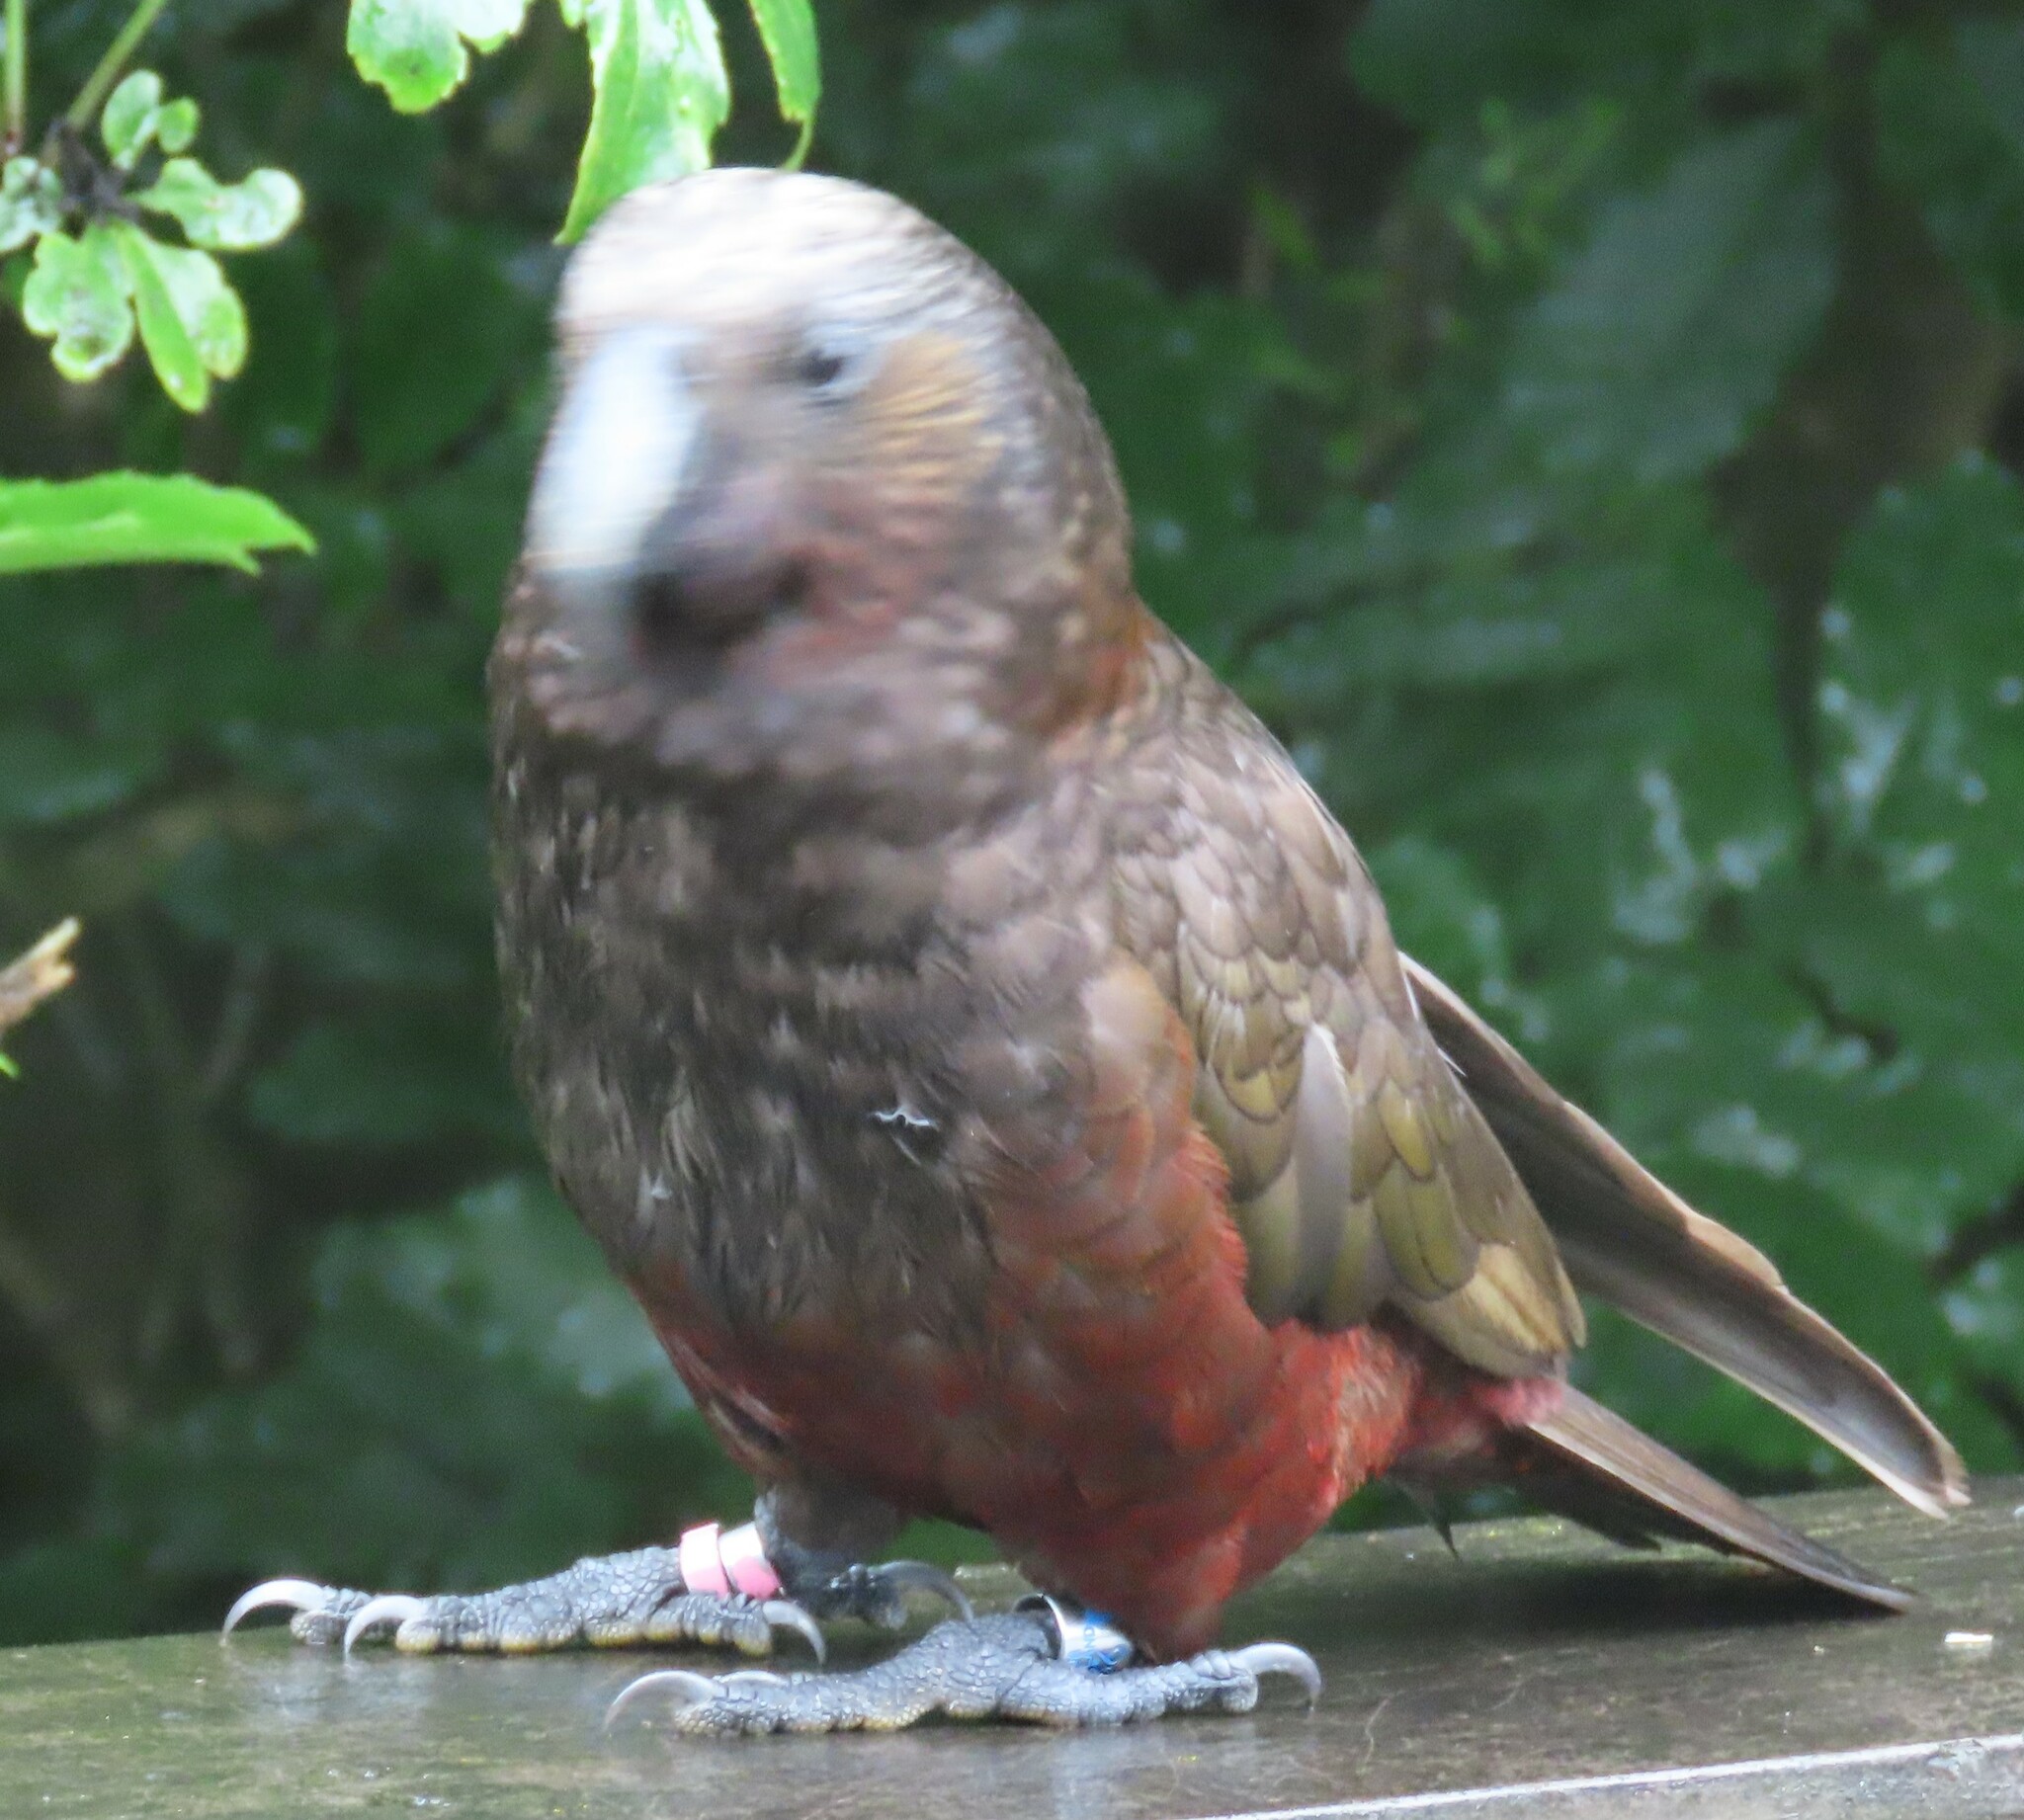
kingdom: Animalia
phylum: Chordata
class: Aves
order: Psittaciformes
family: Psittacidae
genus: Nestor
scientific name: Nestor meridionalis
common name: New zealand kaka
